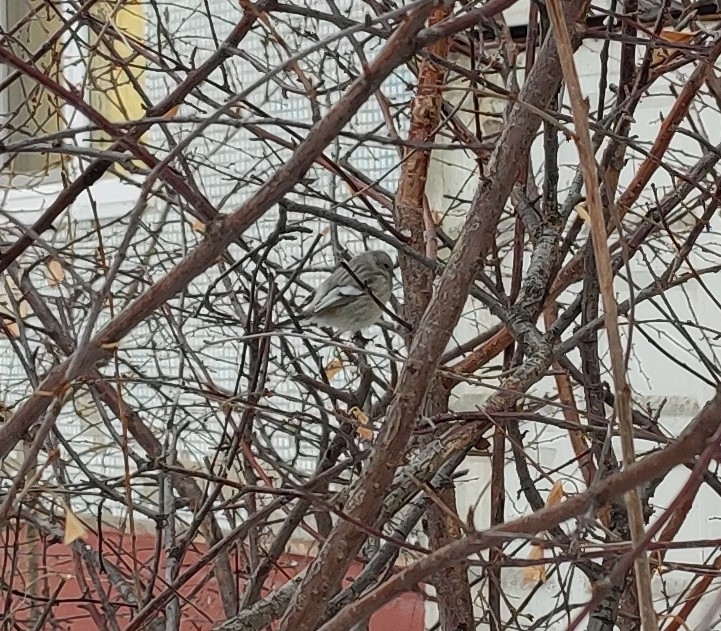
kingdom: Animalia
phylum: Chordata
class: Aves
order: Passeriformes
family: Fringillidae
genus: Carpodacus
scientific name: Carpodacus sibiricus
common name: Long-tailed rosefinch
